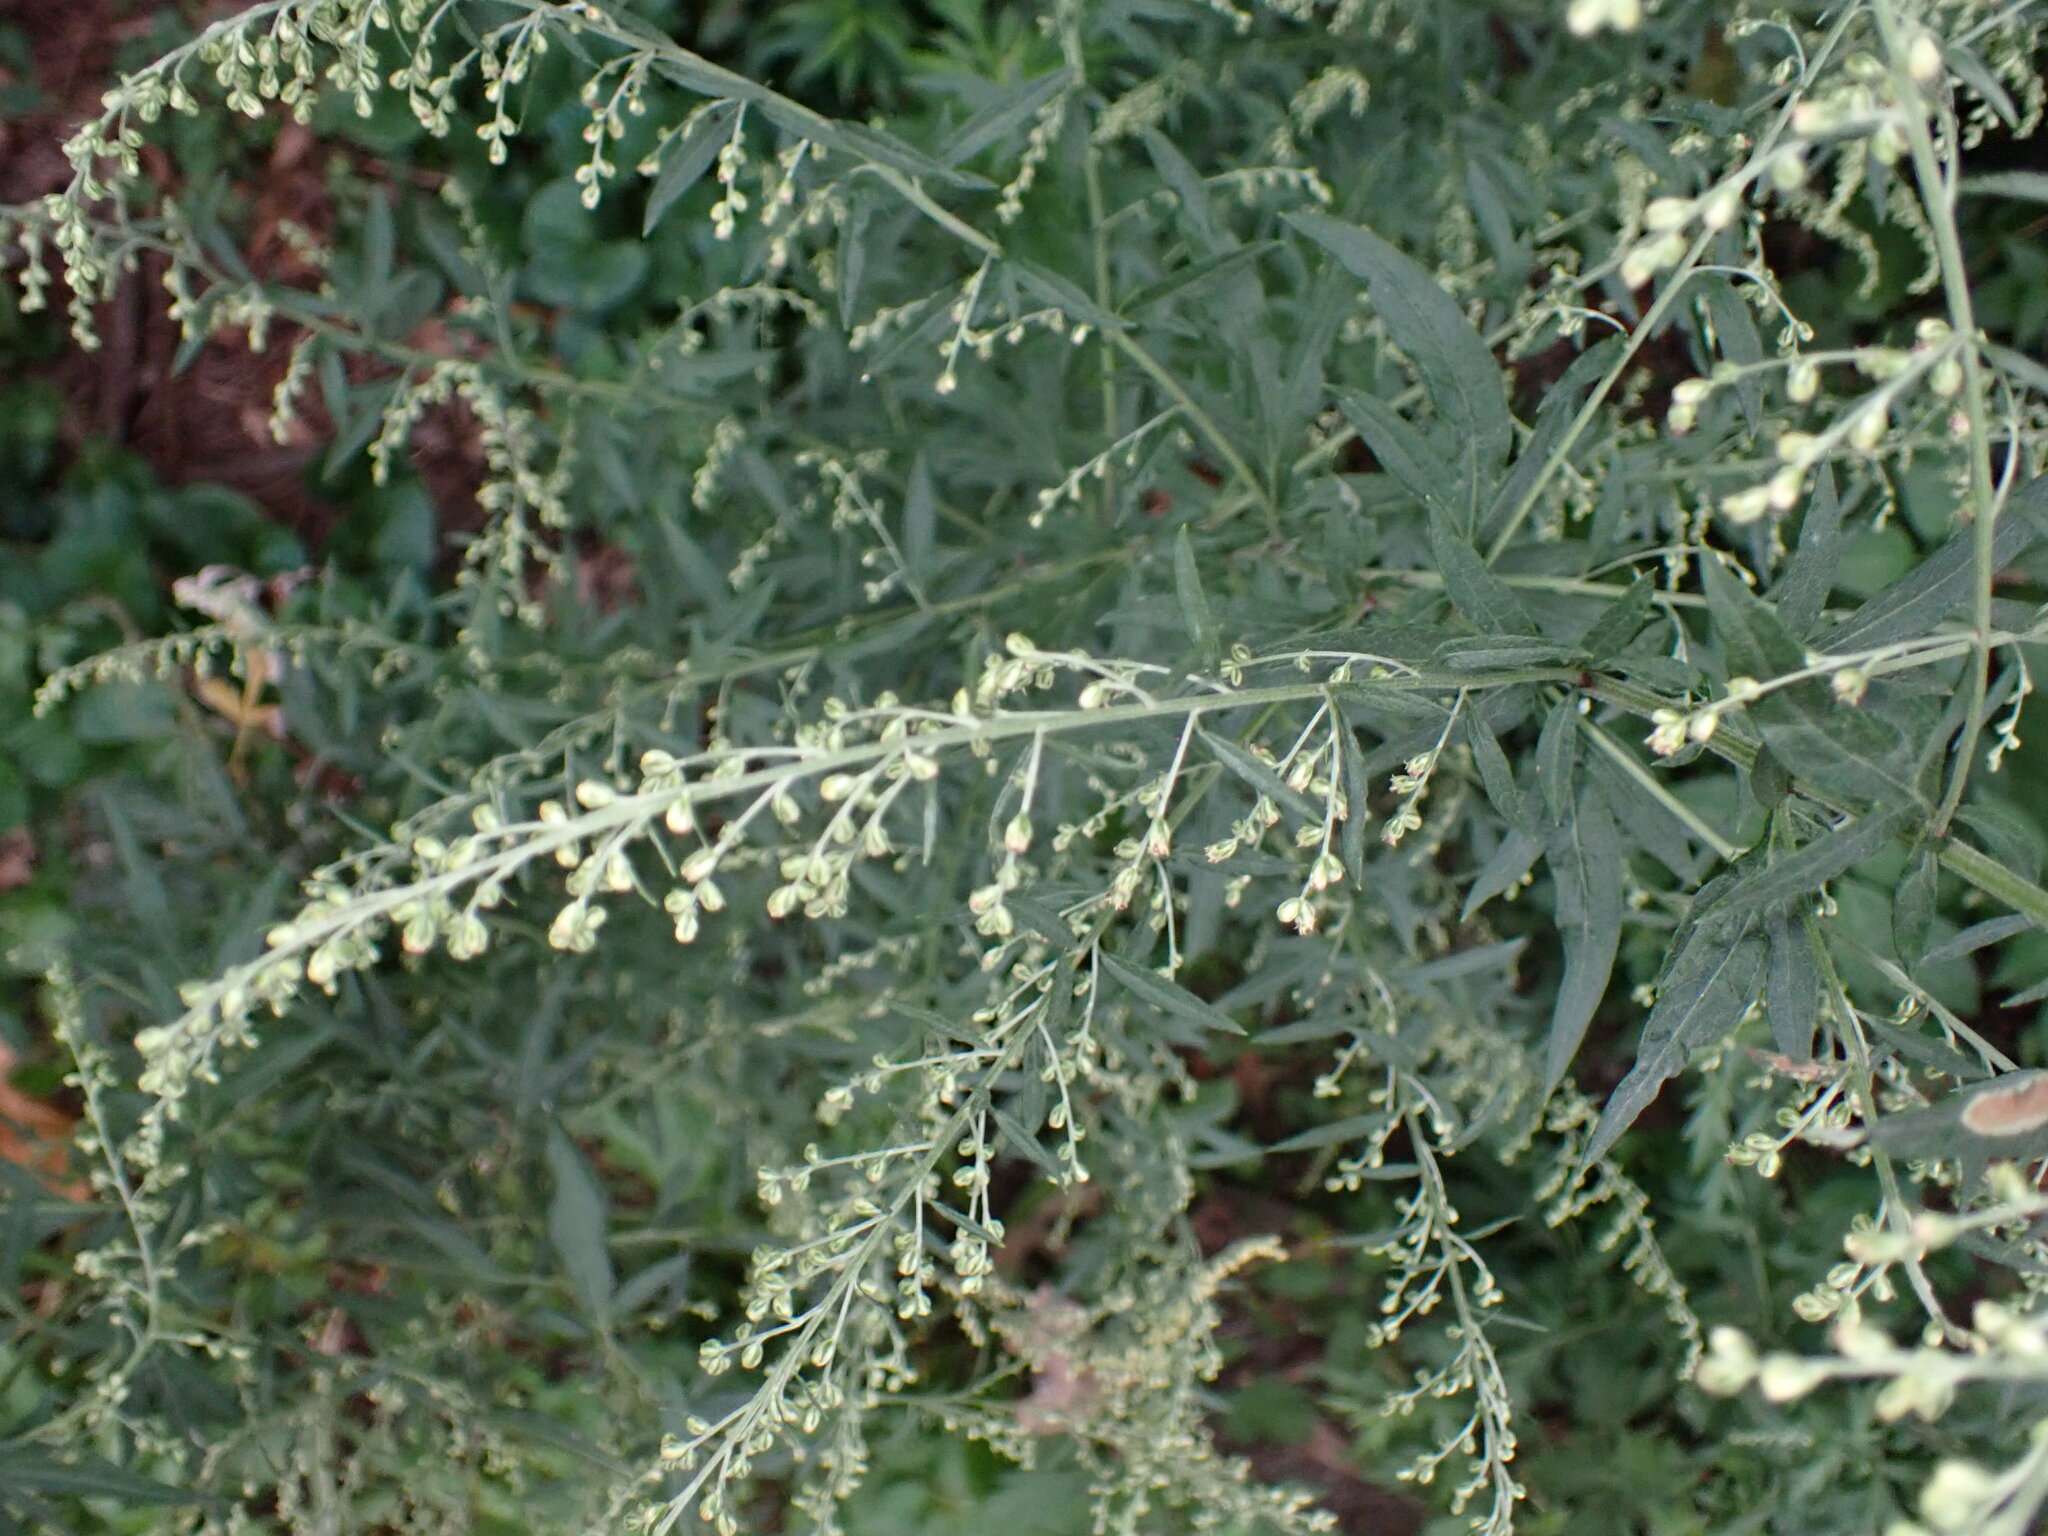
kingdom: Plantae
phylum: Tracheophyta
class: Magnoliopsida
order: Asterales
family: Asteraceae
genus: Artemisia
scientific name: Artemisia vulgaris
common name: Mugwort
